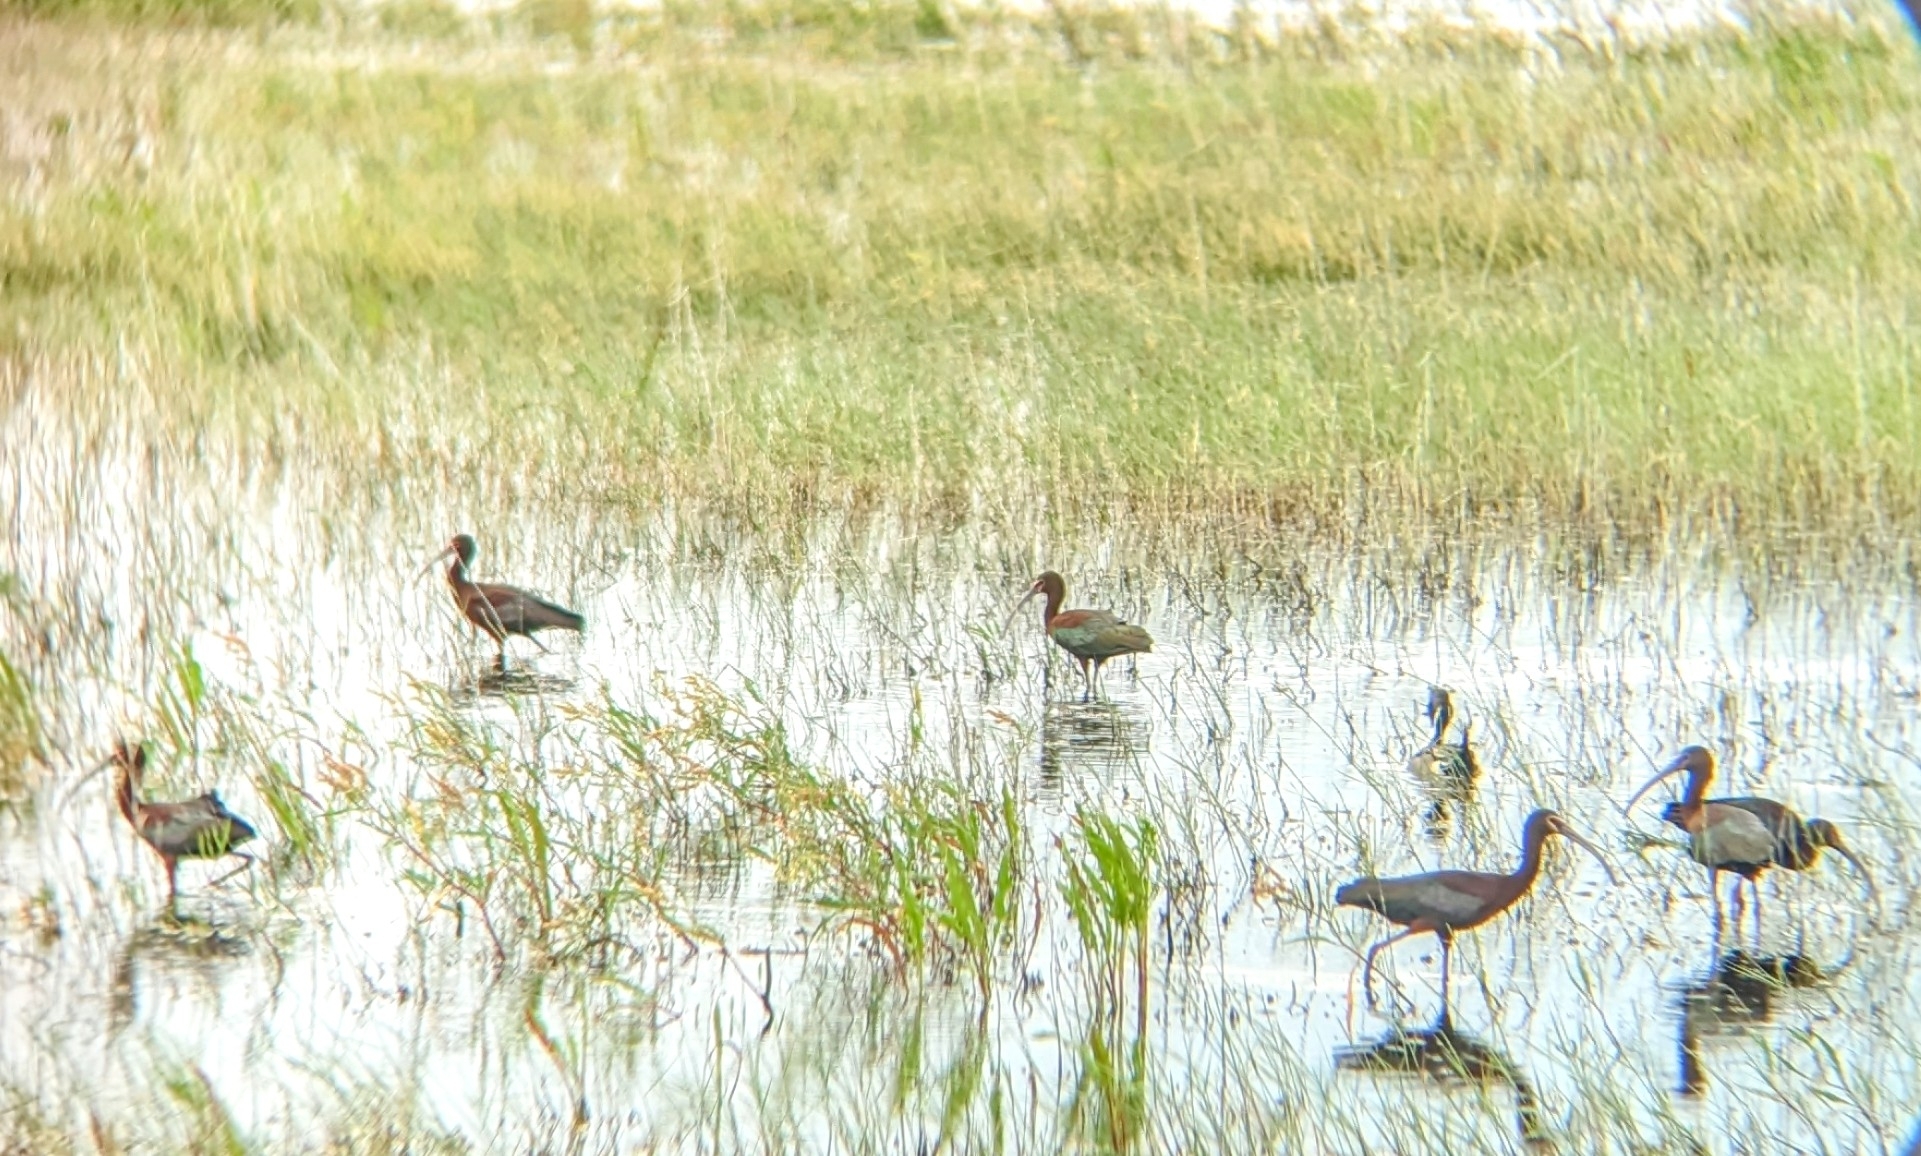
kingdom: Animalia
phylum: Chordata
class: Aves
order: Pelecaniformes
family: Threskiornithidae
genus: Plegadis
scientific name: Plegadis chihi
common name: White-faced ibis
